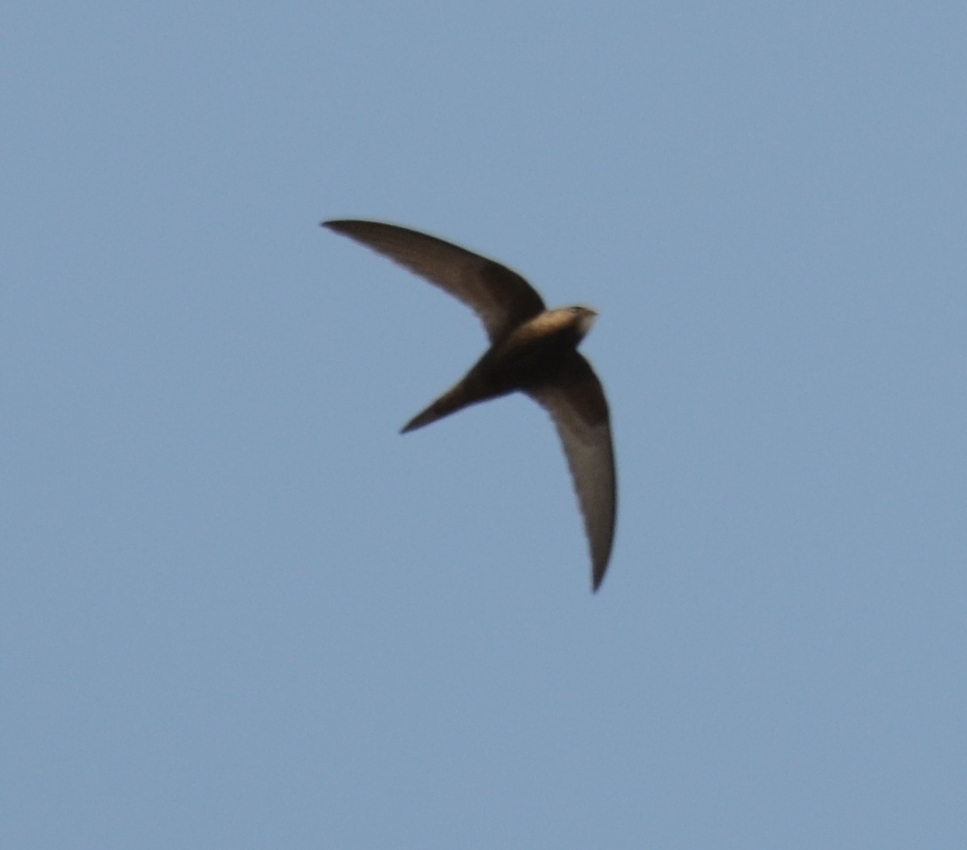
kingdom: Animalia
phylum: Chordata
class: Aves
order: Apodiformes
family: Apodidae
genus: Apus
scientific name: Apus apus
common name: Common swift
